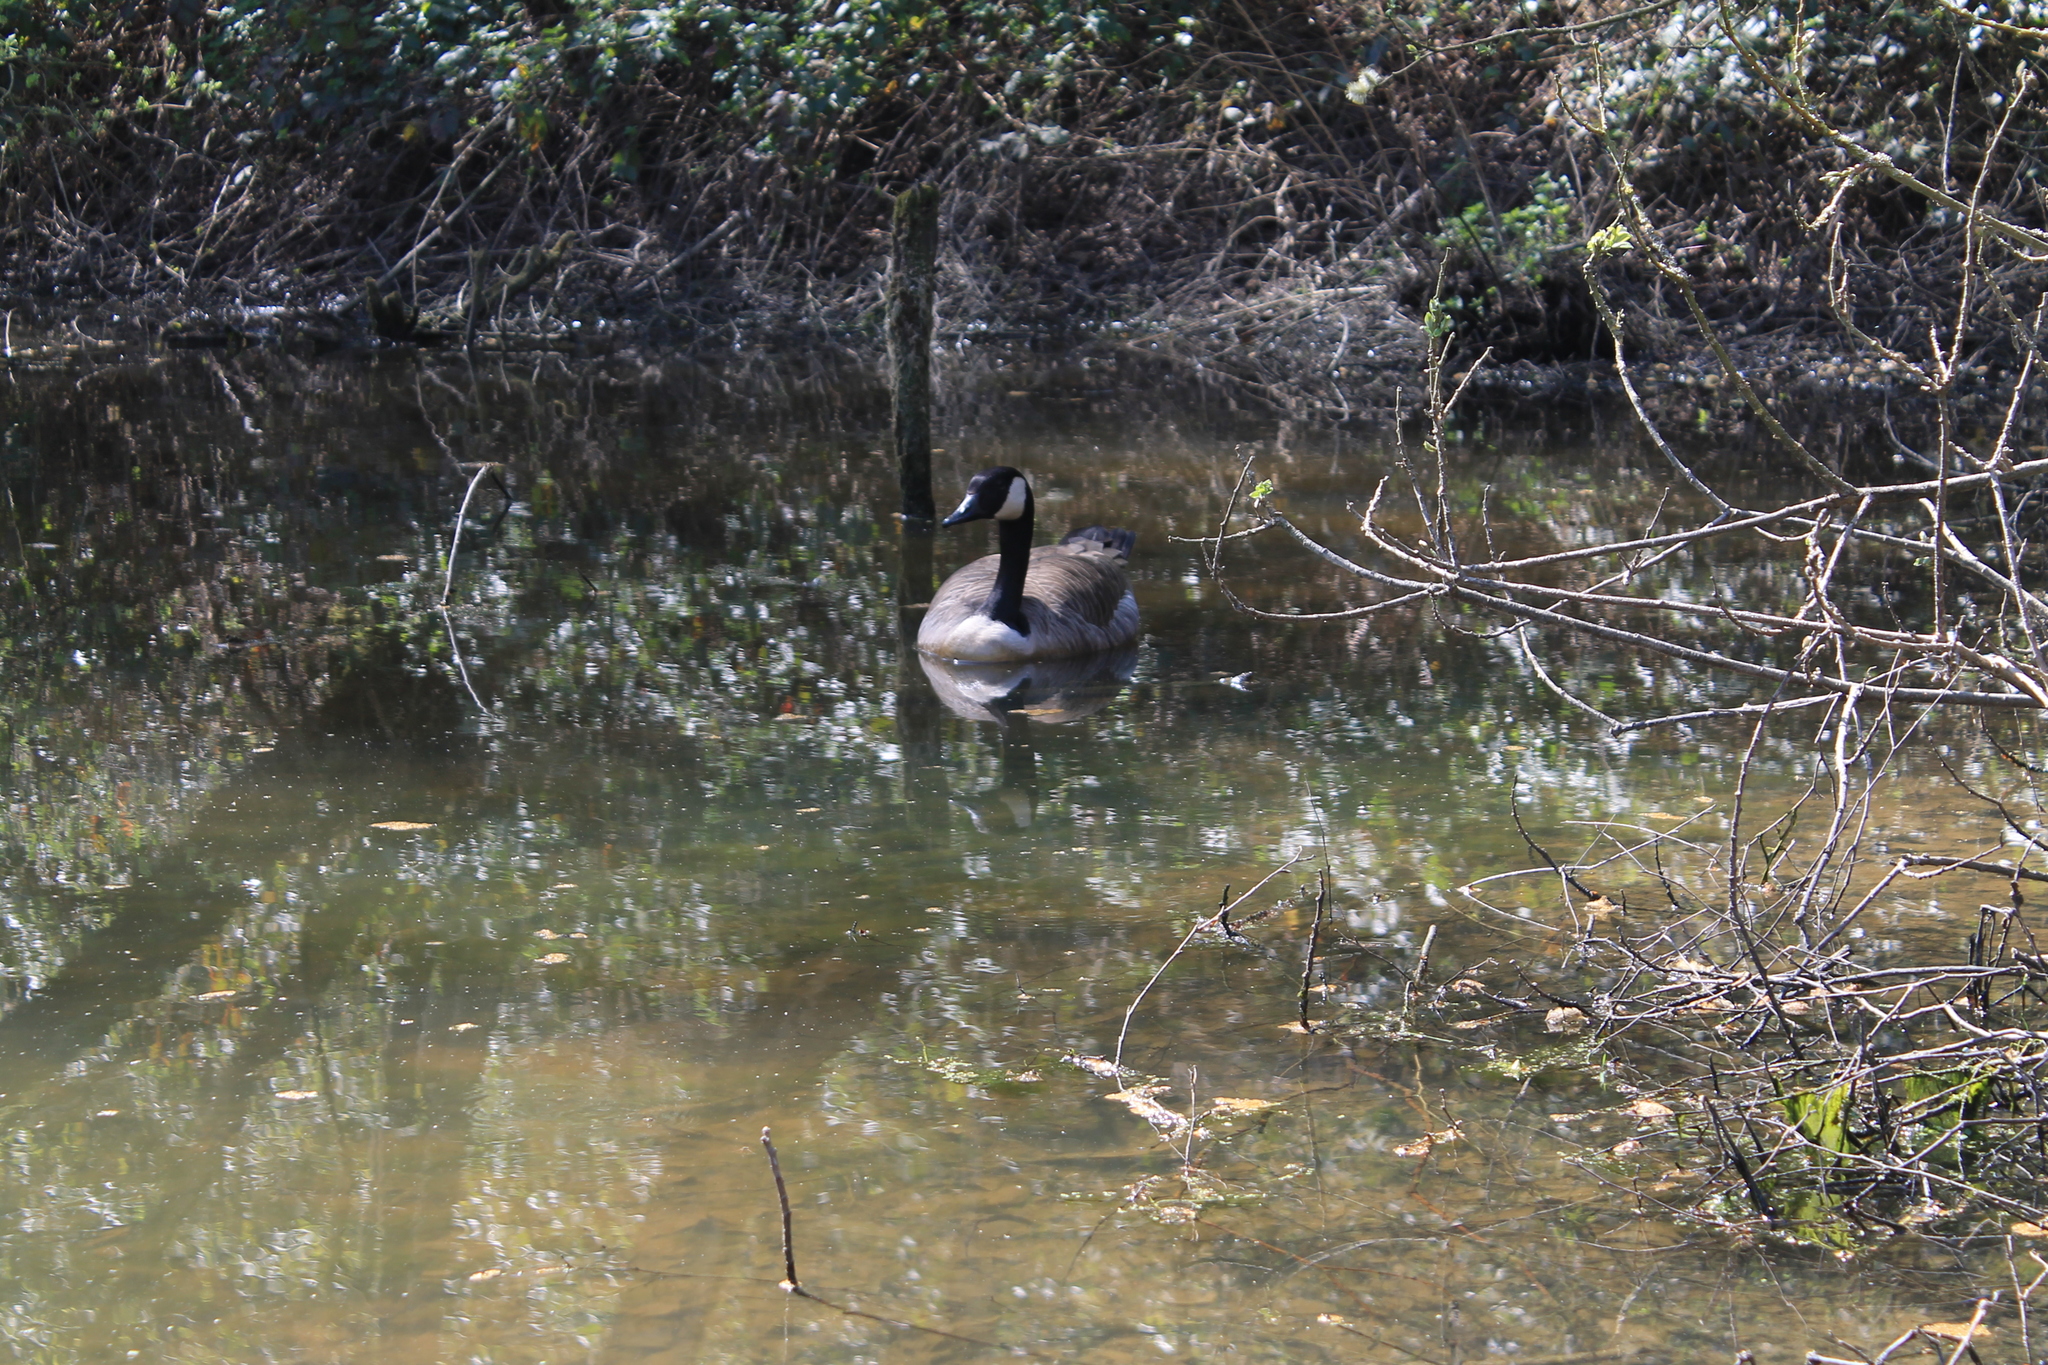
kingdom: Animalia
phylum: Chordata
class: Aves
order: Anseriformes
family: Anatidae
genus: Branta
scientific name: Branta canadensis
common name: Canada goose
